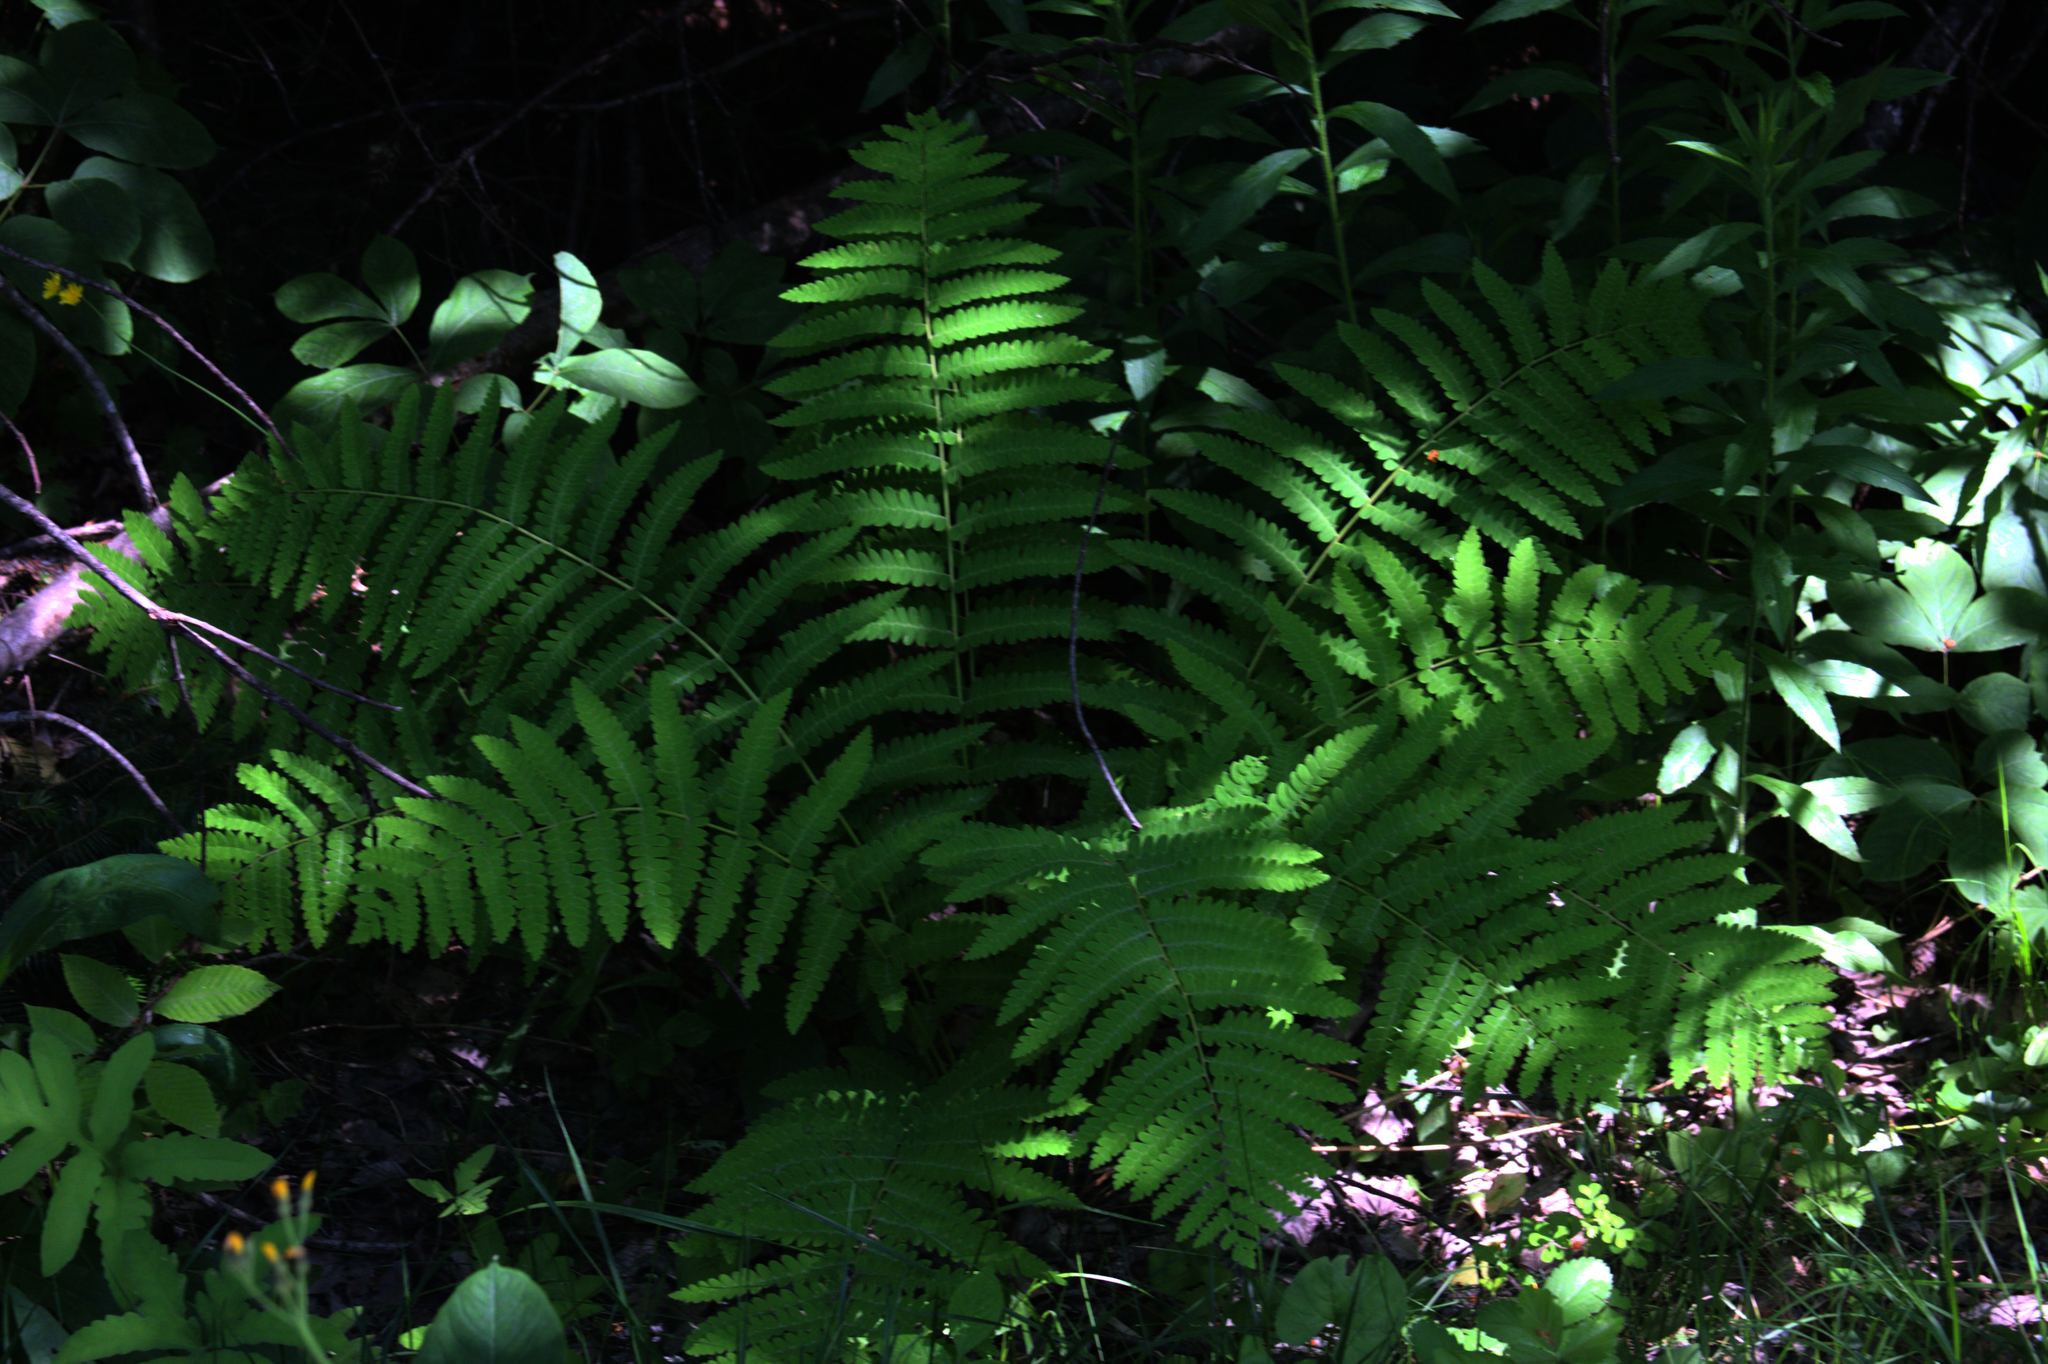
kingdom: Plantae
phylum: Tracheophyta
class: Polypodiopsida
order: Osmundales
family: Osmundaceae
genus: Claytosmunda
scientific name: Claytosmunda claytoniana
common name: Clayton's fern
